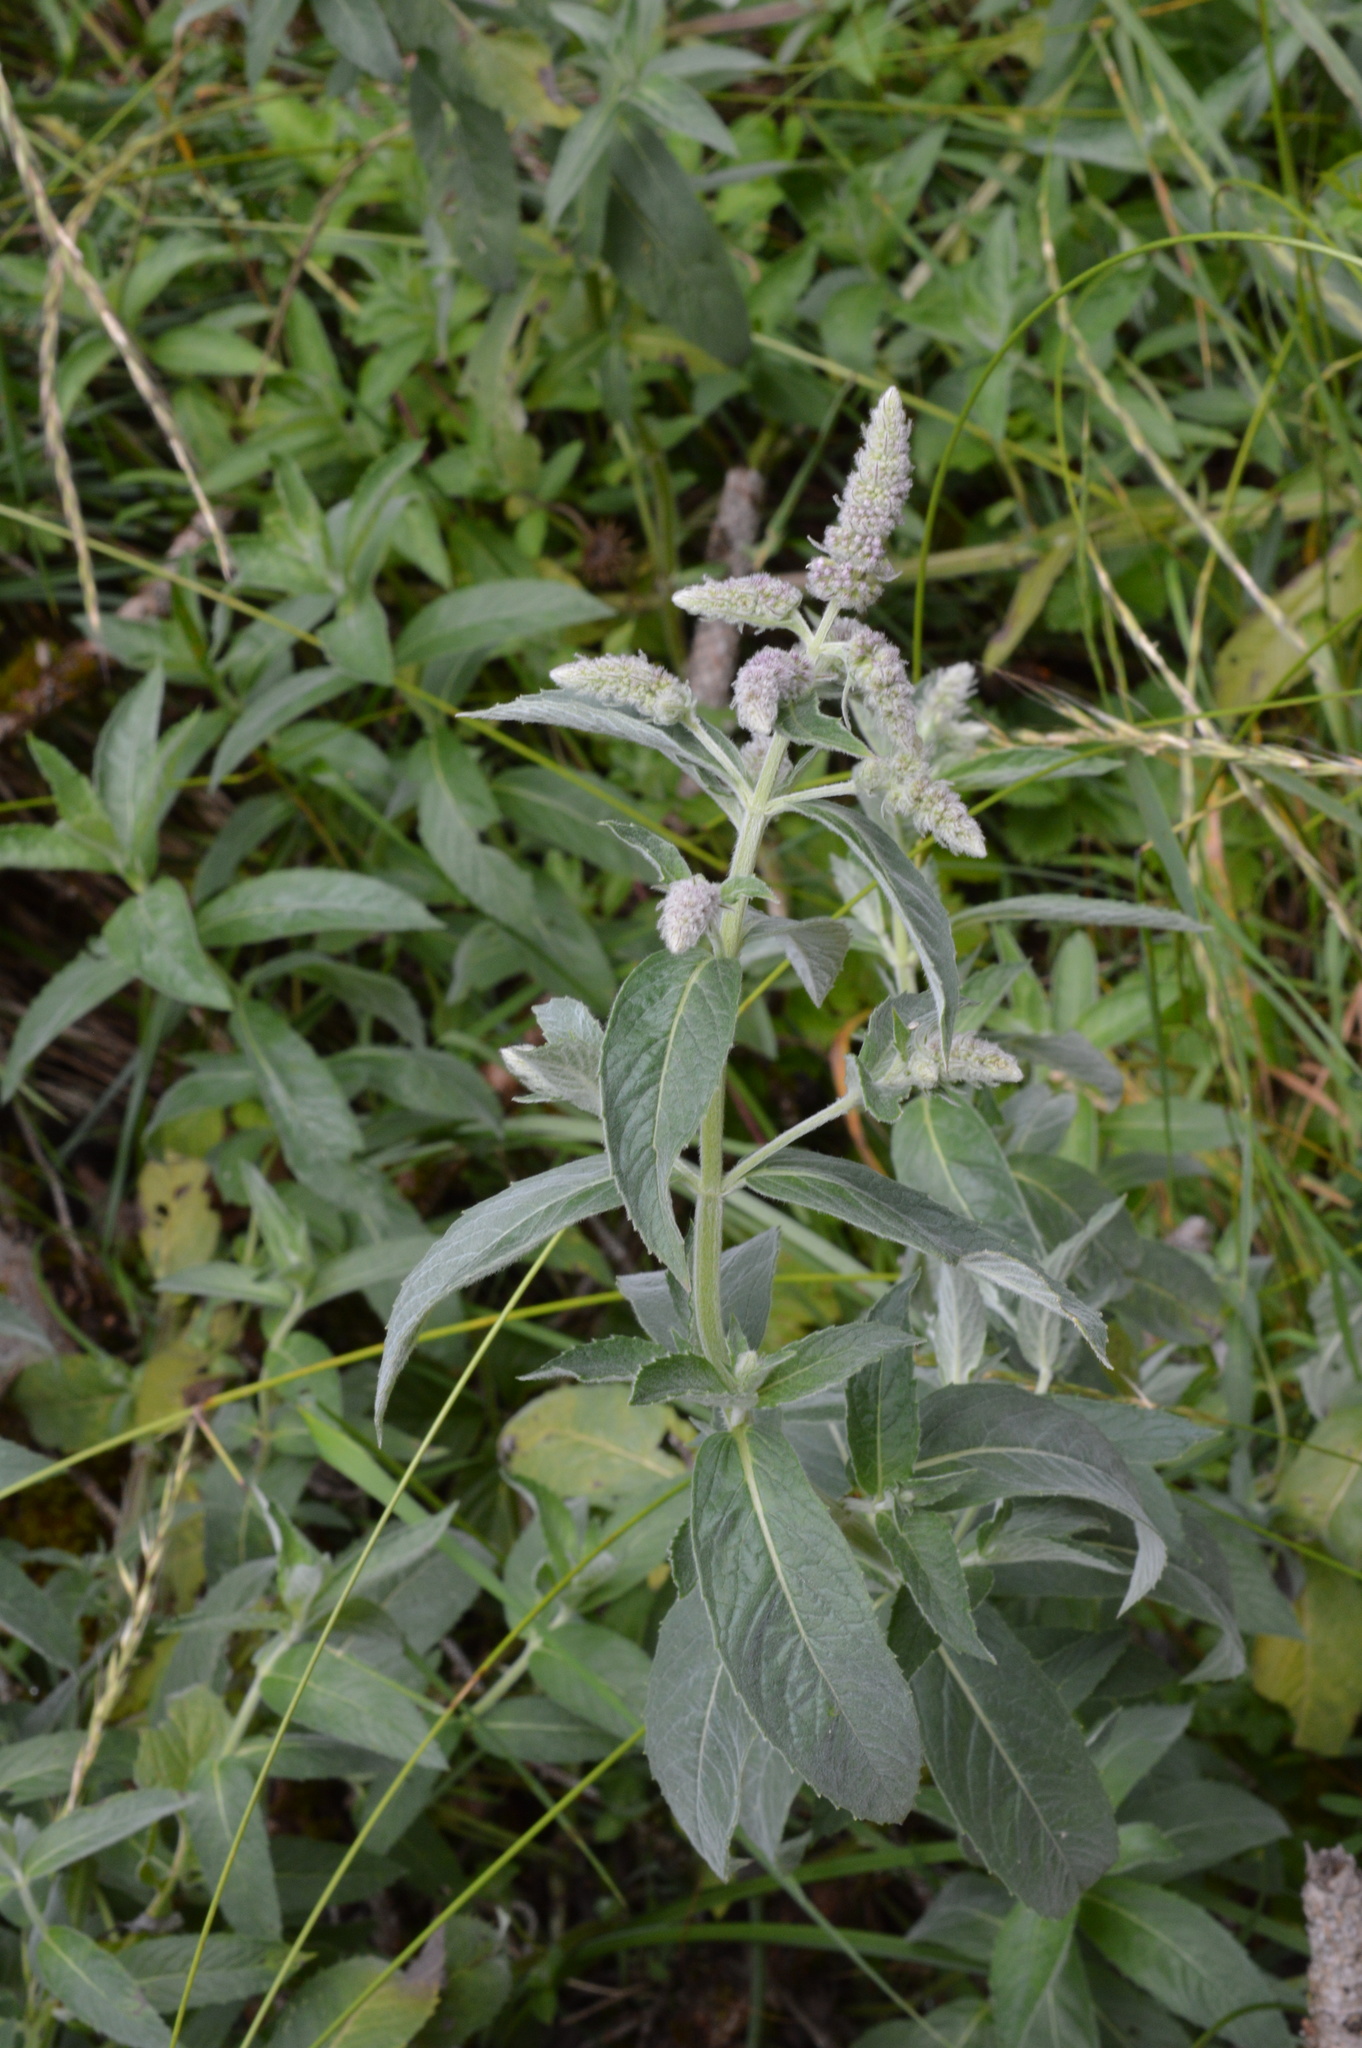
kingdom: Plantae
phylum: Tracheophyta
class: Magnoliopsida
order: Lamiales
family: Lamiaceae
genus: Mentha
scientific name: Mentha longifolia
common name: Horse mint
